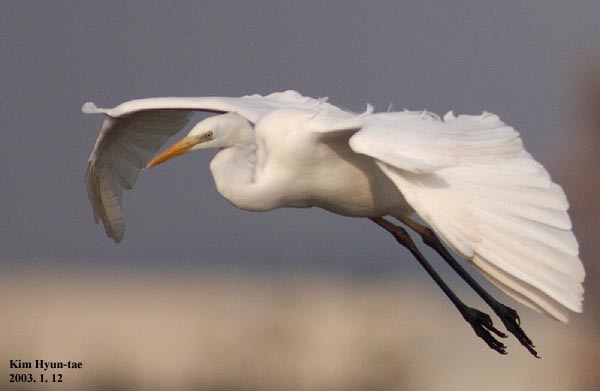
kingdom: Animalia
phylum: Chordata
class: Aves
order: Pelecaniformes
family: Ardeidae
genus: Ardea
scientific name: Ardea alba
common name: Great egret
